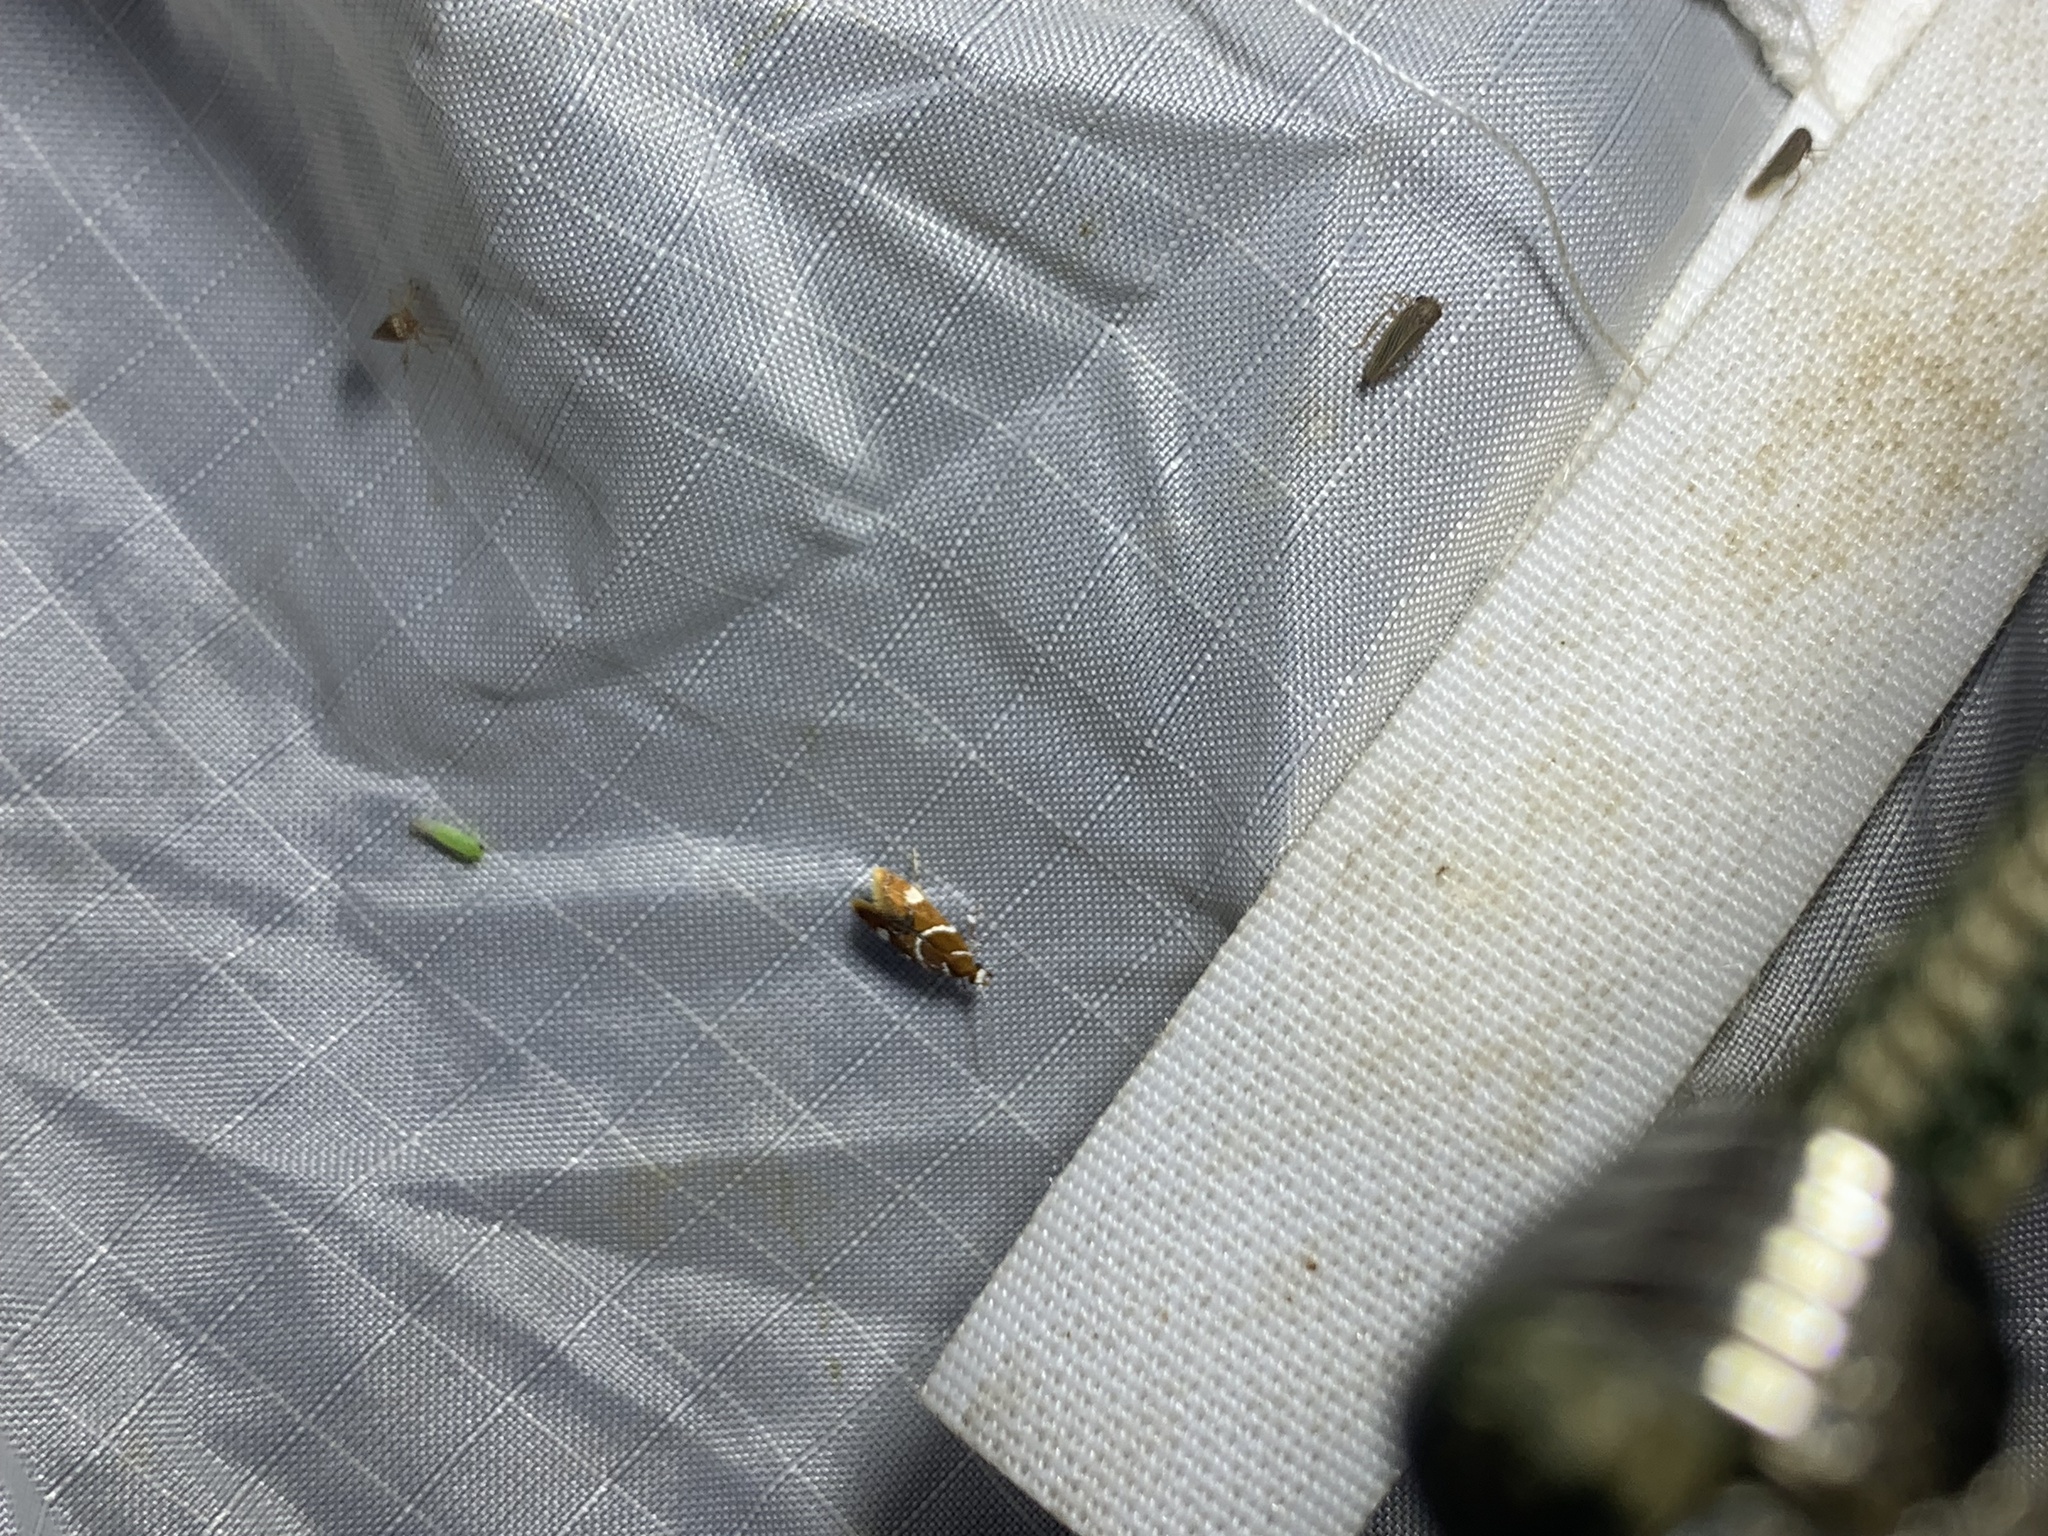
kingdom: Animalia
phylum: Arthropoda
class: Insecta
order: Lepidoptera
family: Oecophoridae
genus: Promalactis
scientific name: Promalactis suzukiella
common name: Moth
